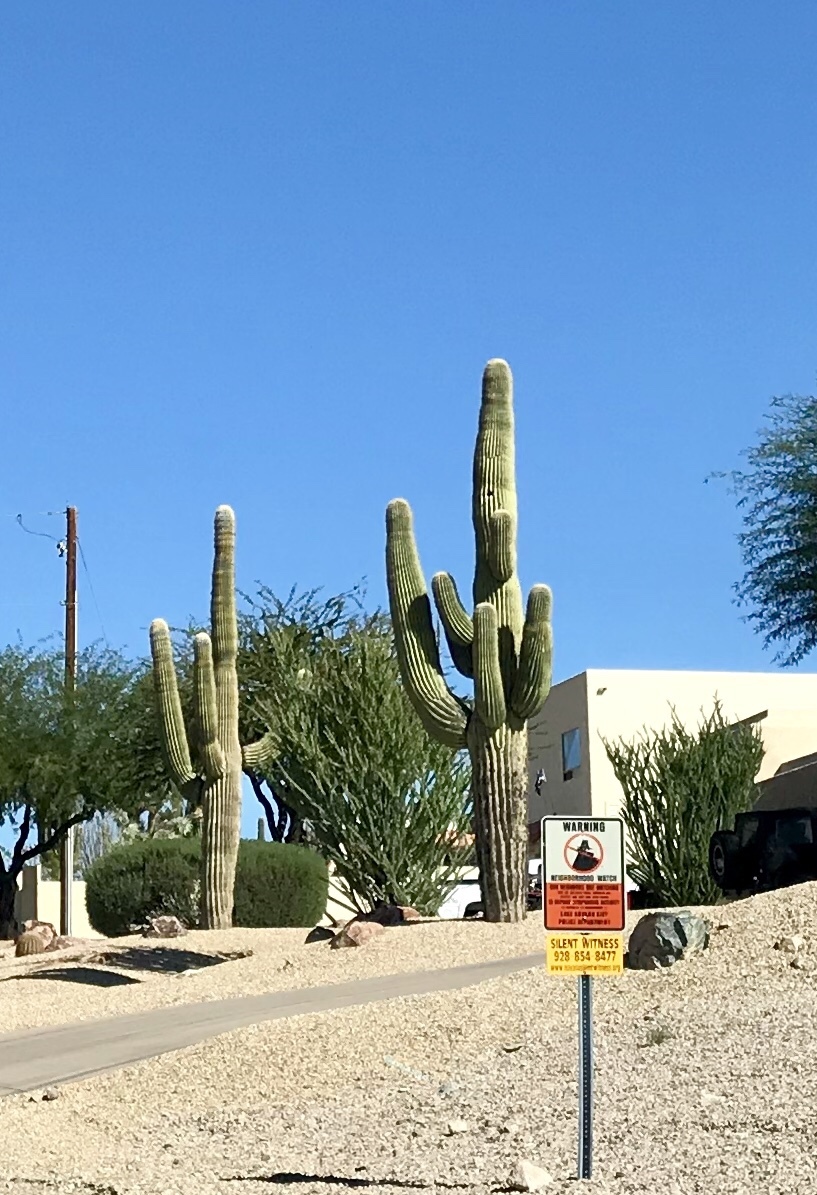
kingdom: Plantae
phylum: Tracheophyta
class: Magnoliopsida
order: Caryophyllales
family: Cactaceae
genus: Carnegiea
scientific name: Carnegiea gigantea
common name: Saguaro
